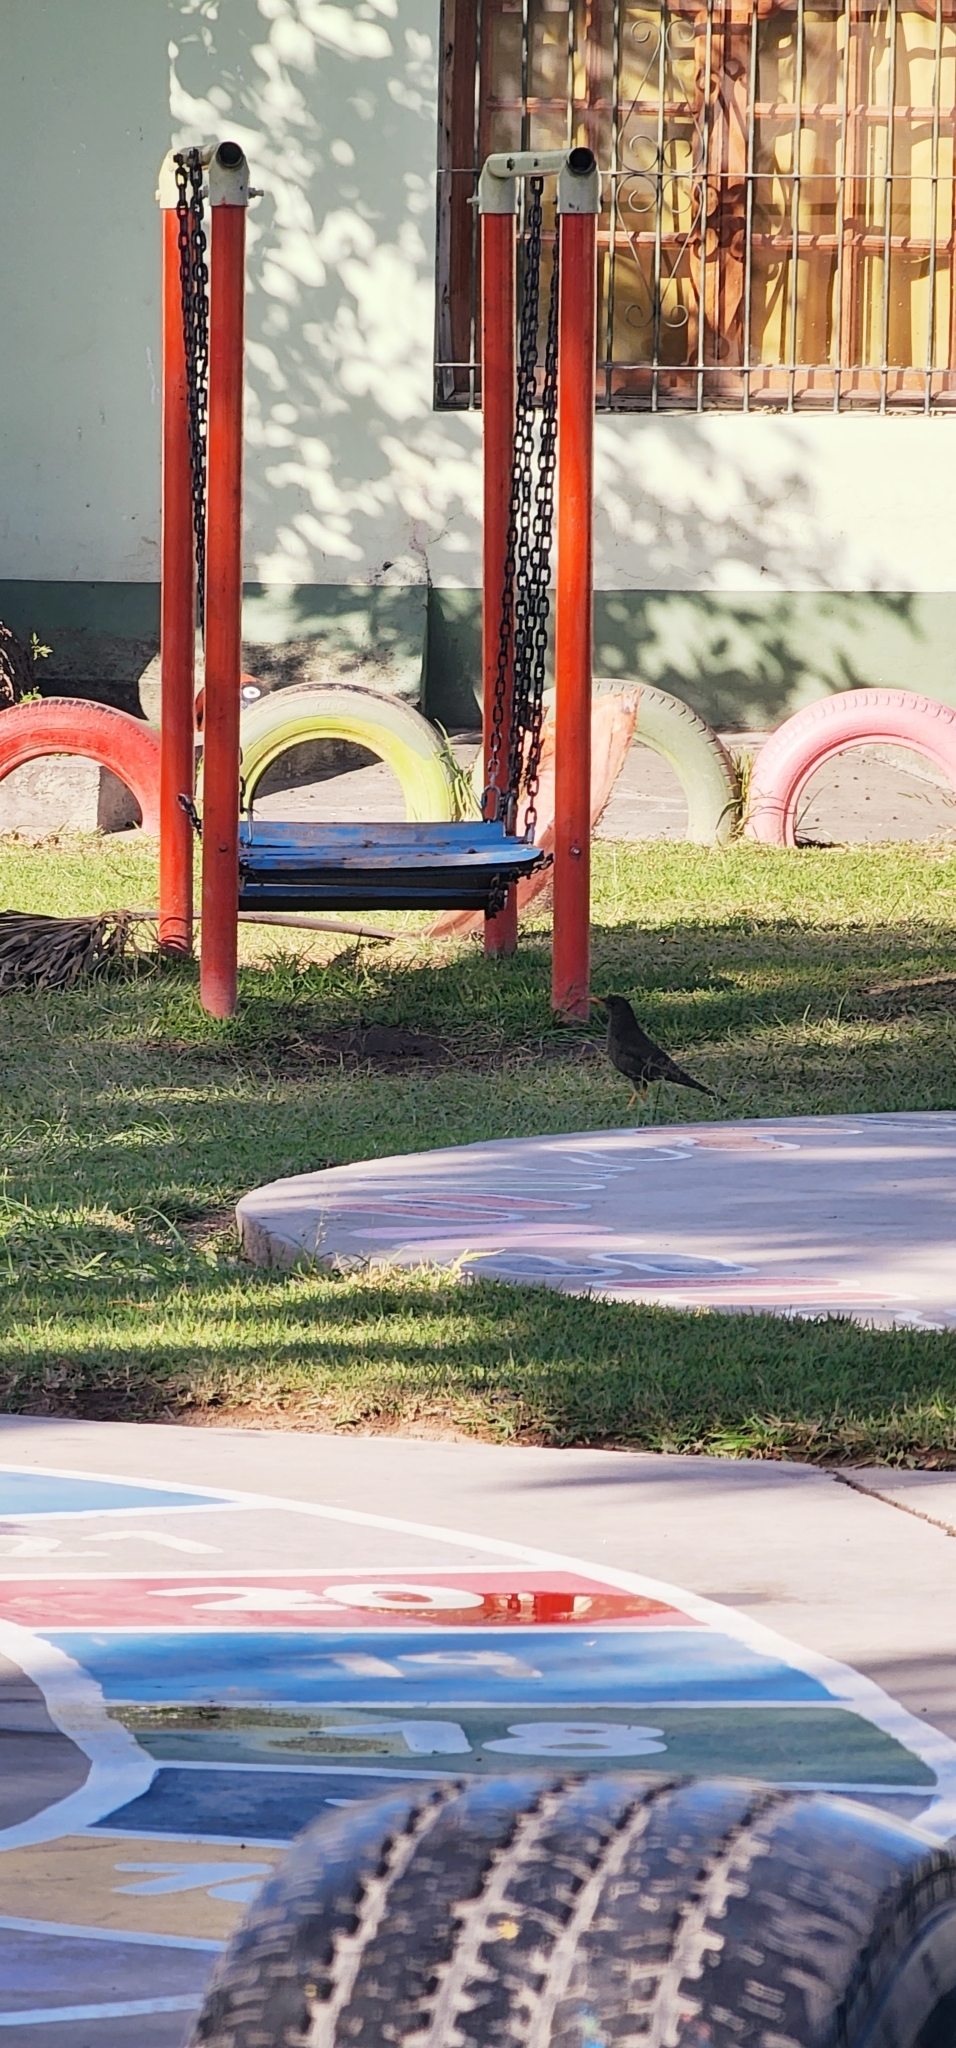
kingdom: Animalia
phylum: Chordata
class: Aves
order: Passeriformes
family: Turdidae
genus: Turdus
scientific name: Turdus chiguanco
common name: Chiguanco thrush
